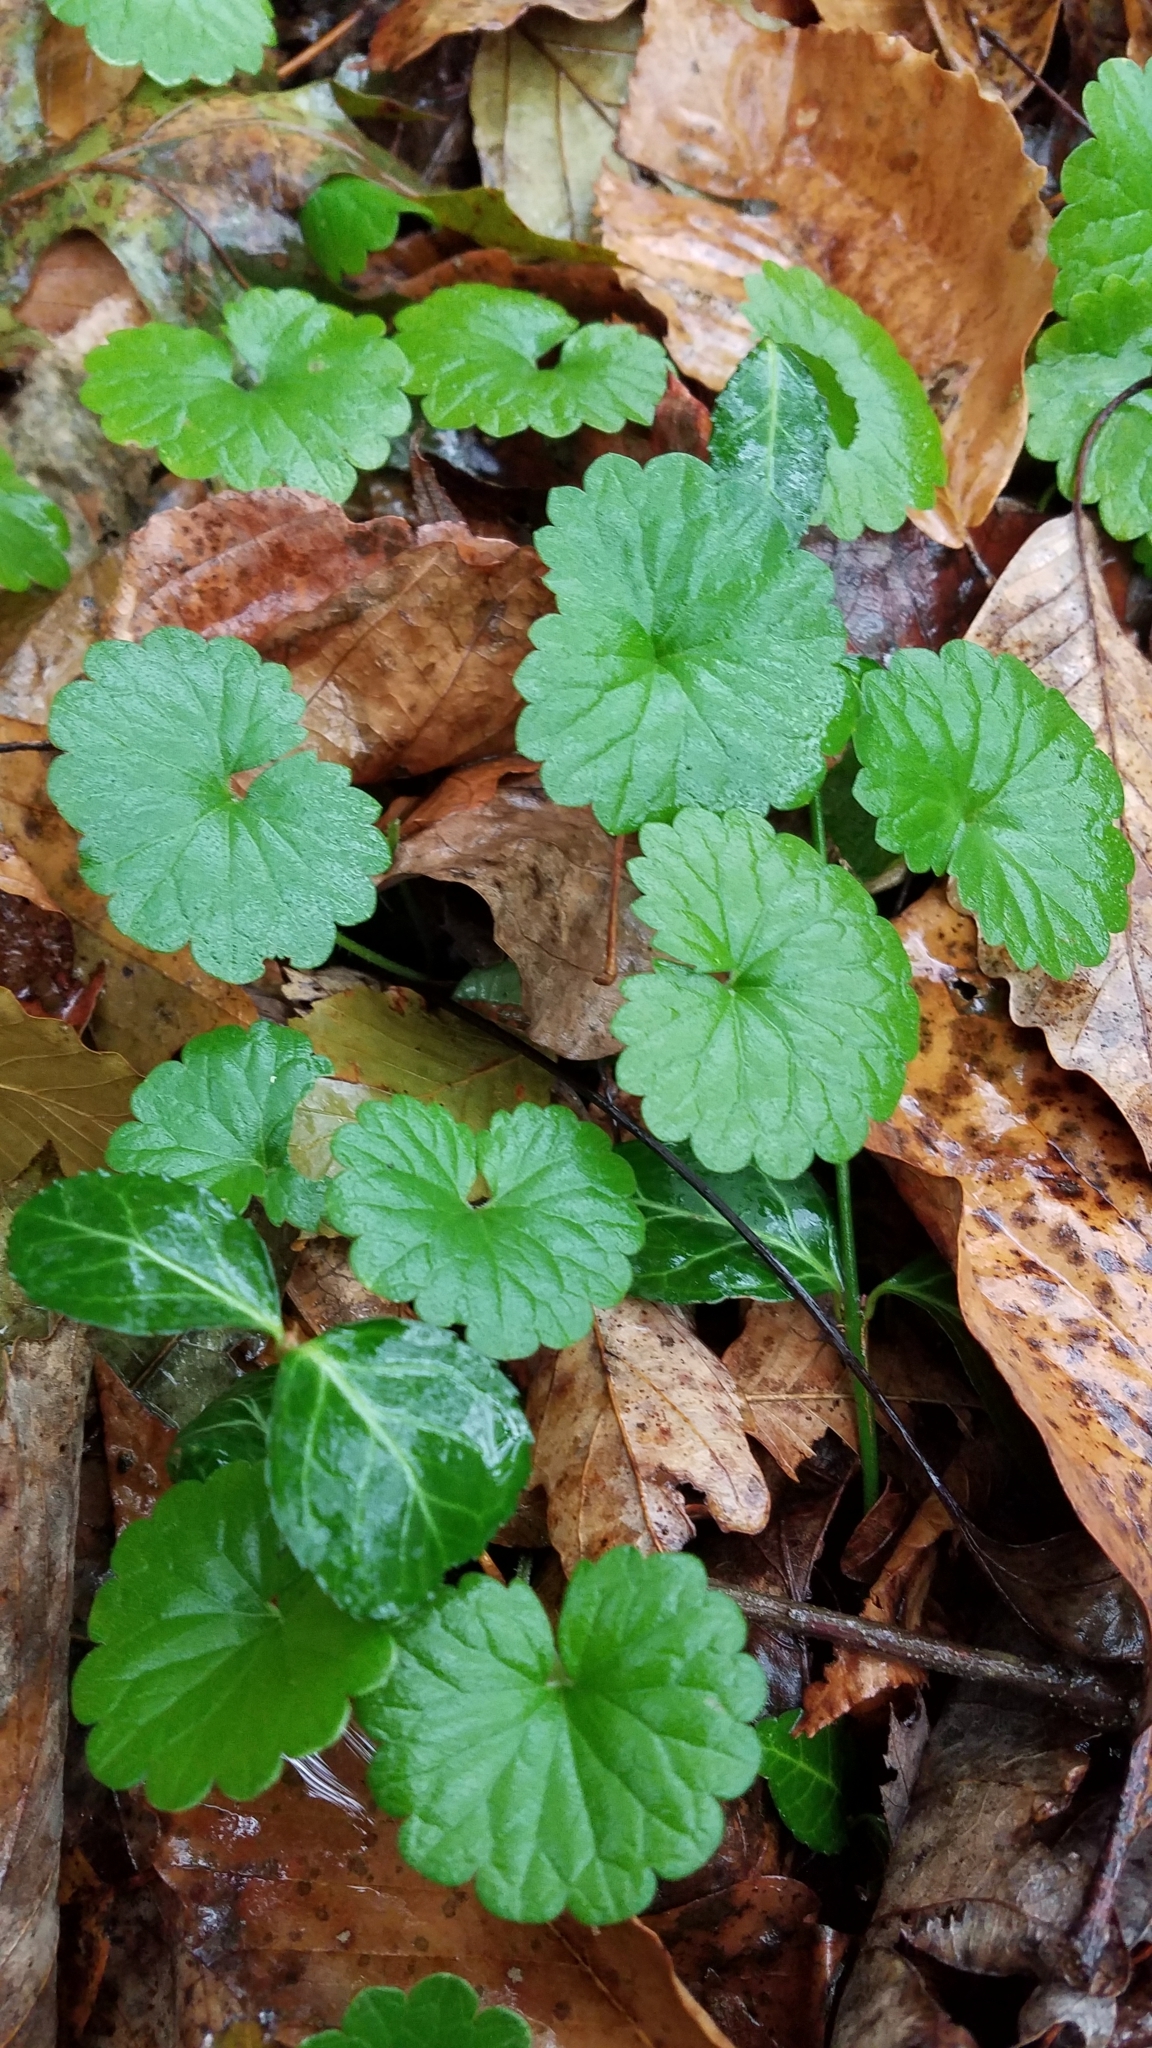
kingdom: Plantae
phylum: Tracheophyta
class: Magnoliopsida
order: Lamiales
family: Lamiaceae
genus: Glechoma
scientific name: Glechoma hederacea
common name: Ground ivy
